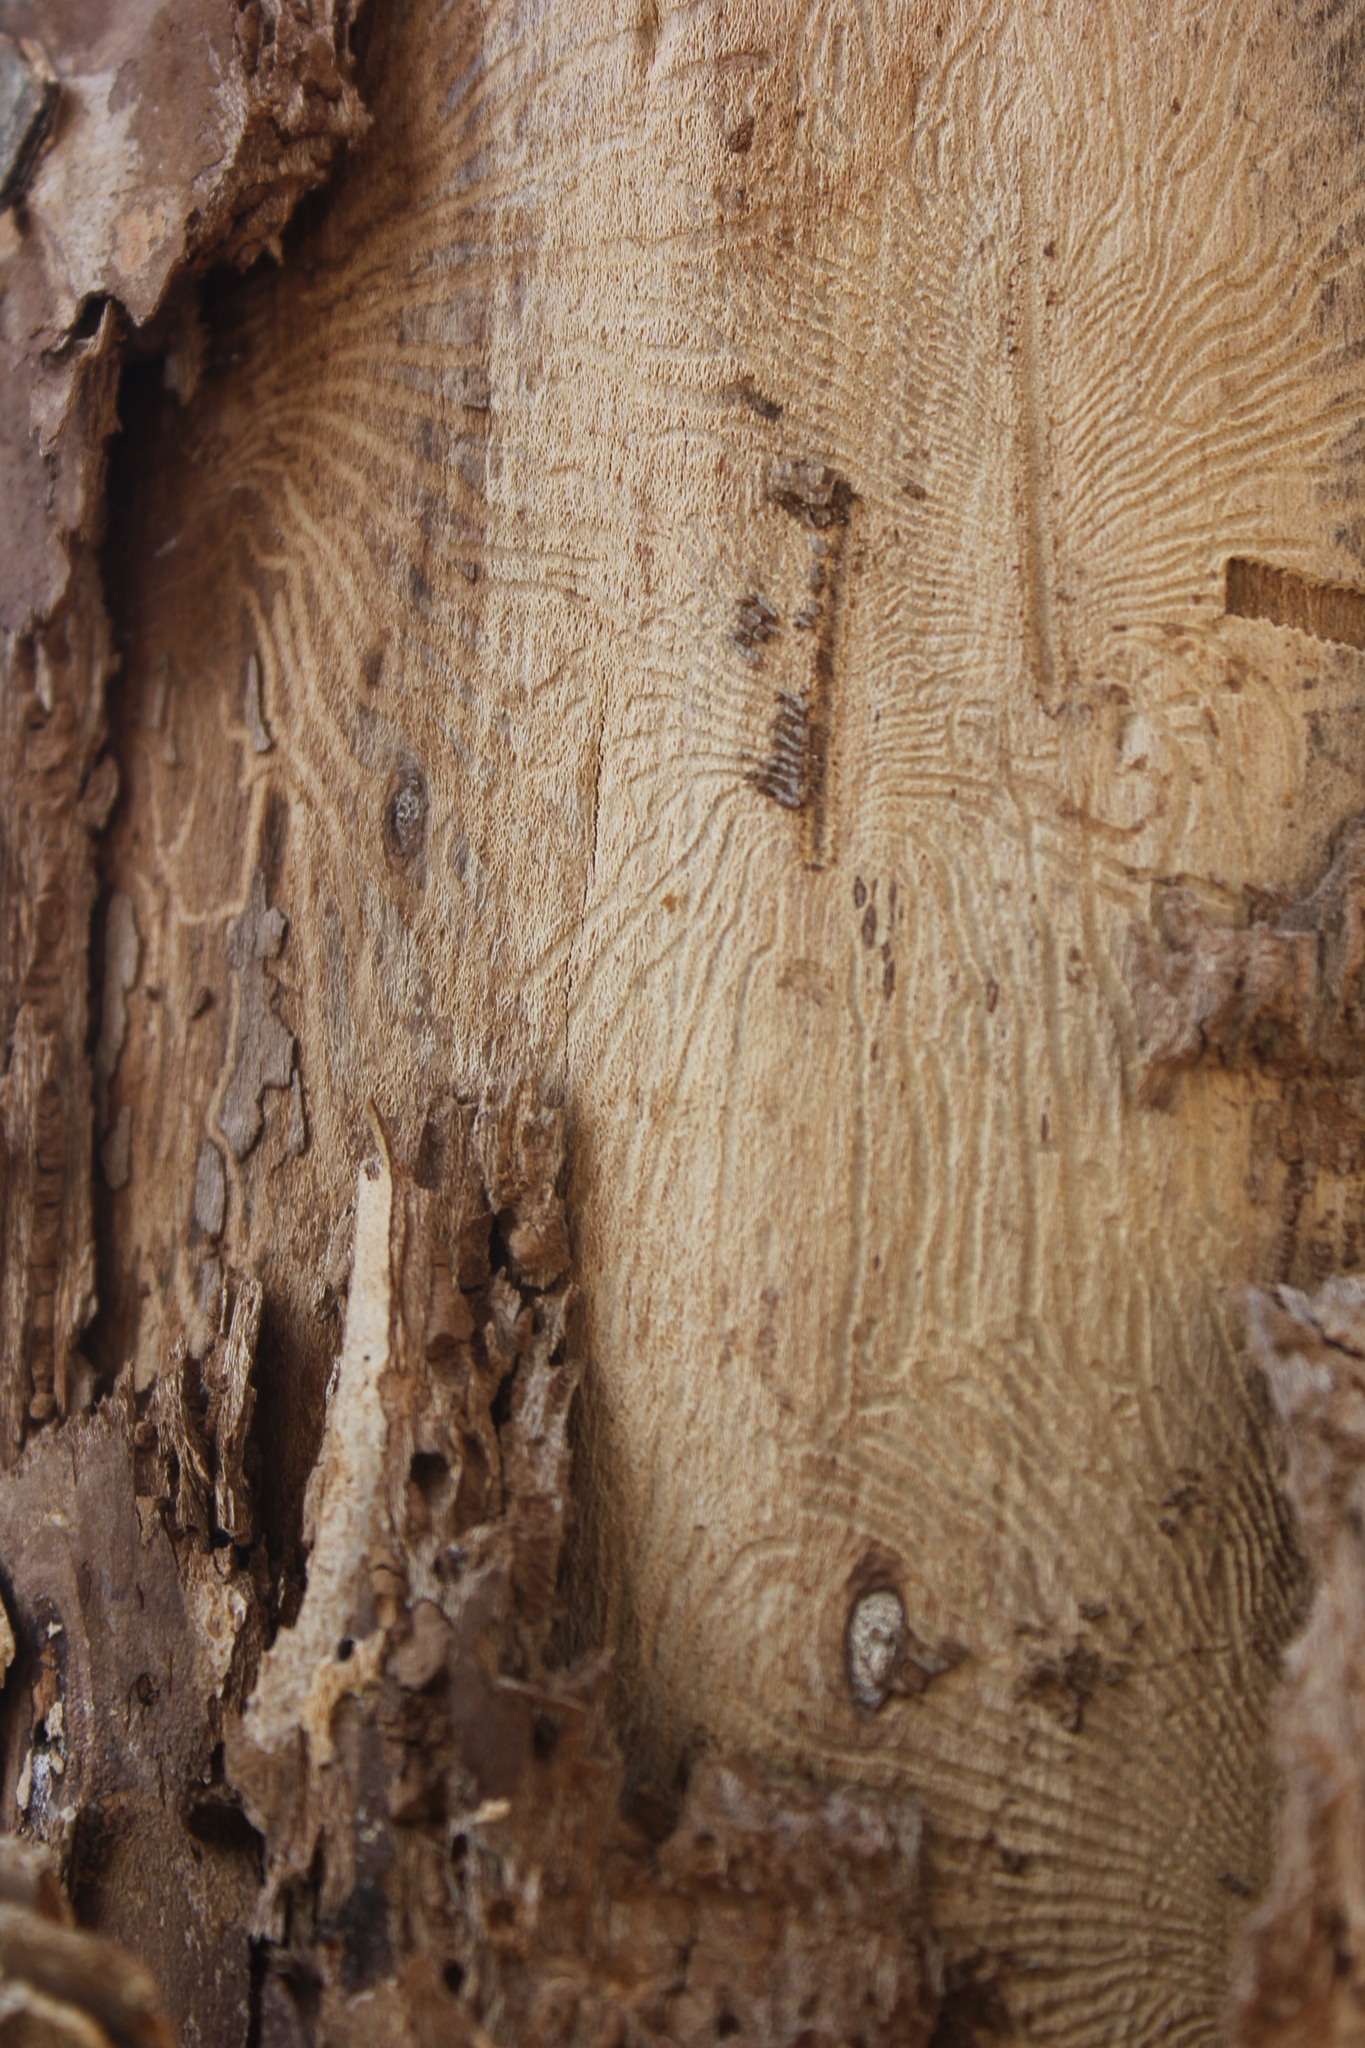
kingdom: Animalia
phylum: Arthropoda
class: Insecta
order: Coleoptera
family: Curculionidae
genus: Ips
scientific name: Ips typographus
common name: Eight-toothed spruce bark beetle
